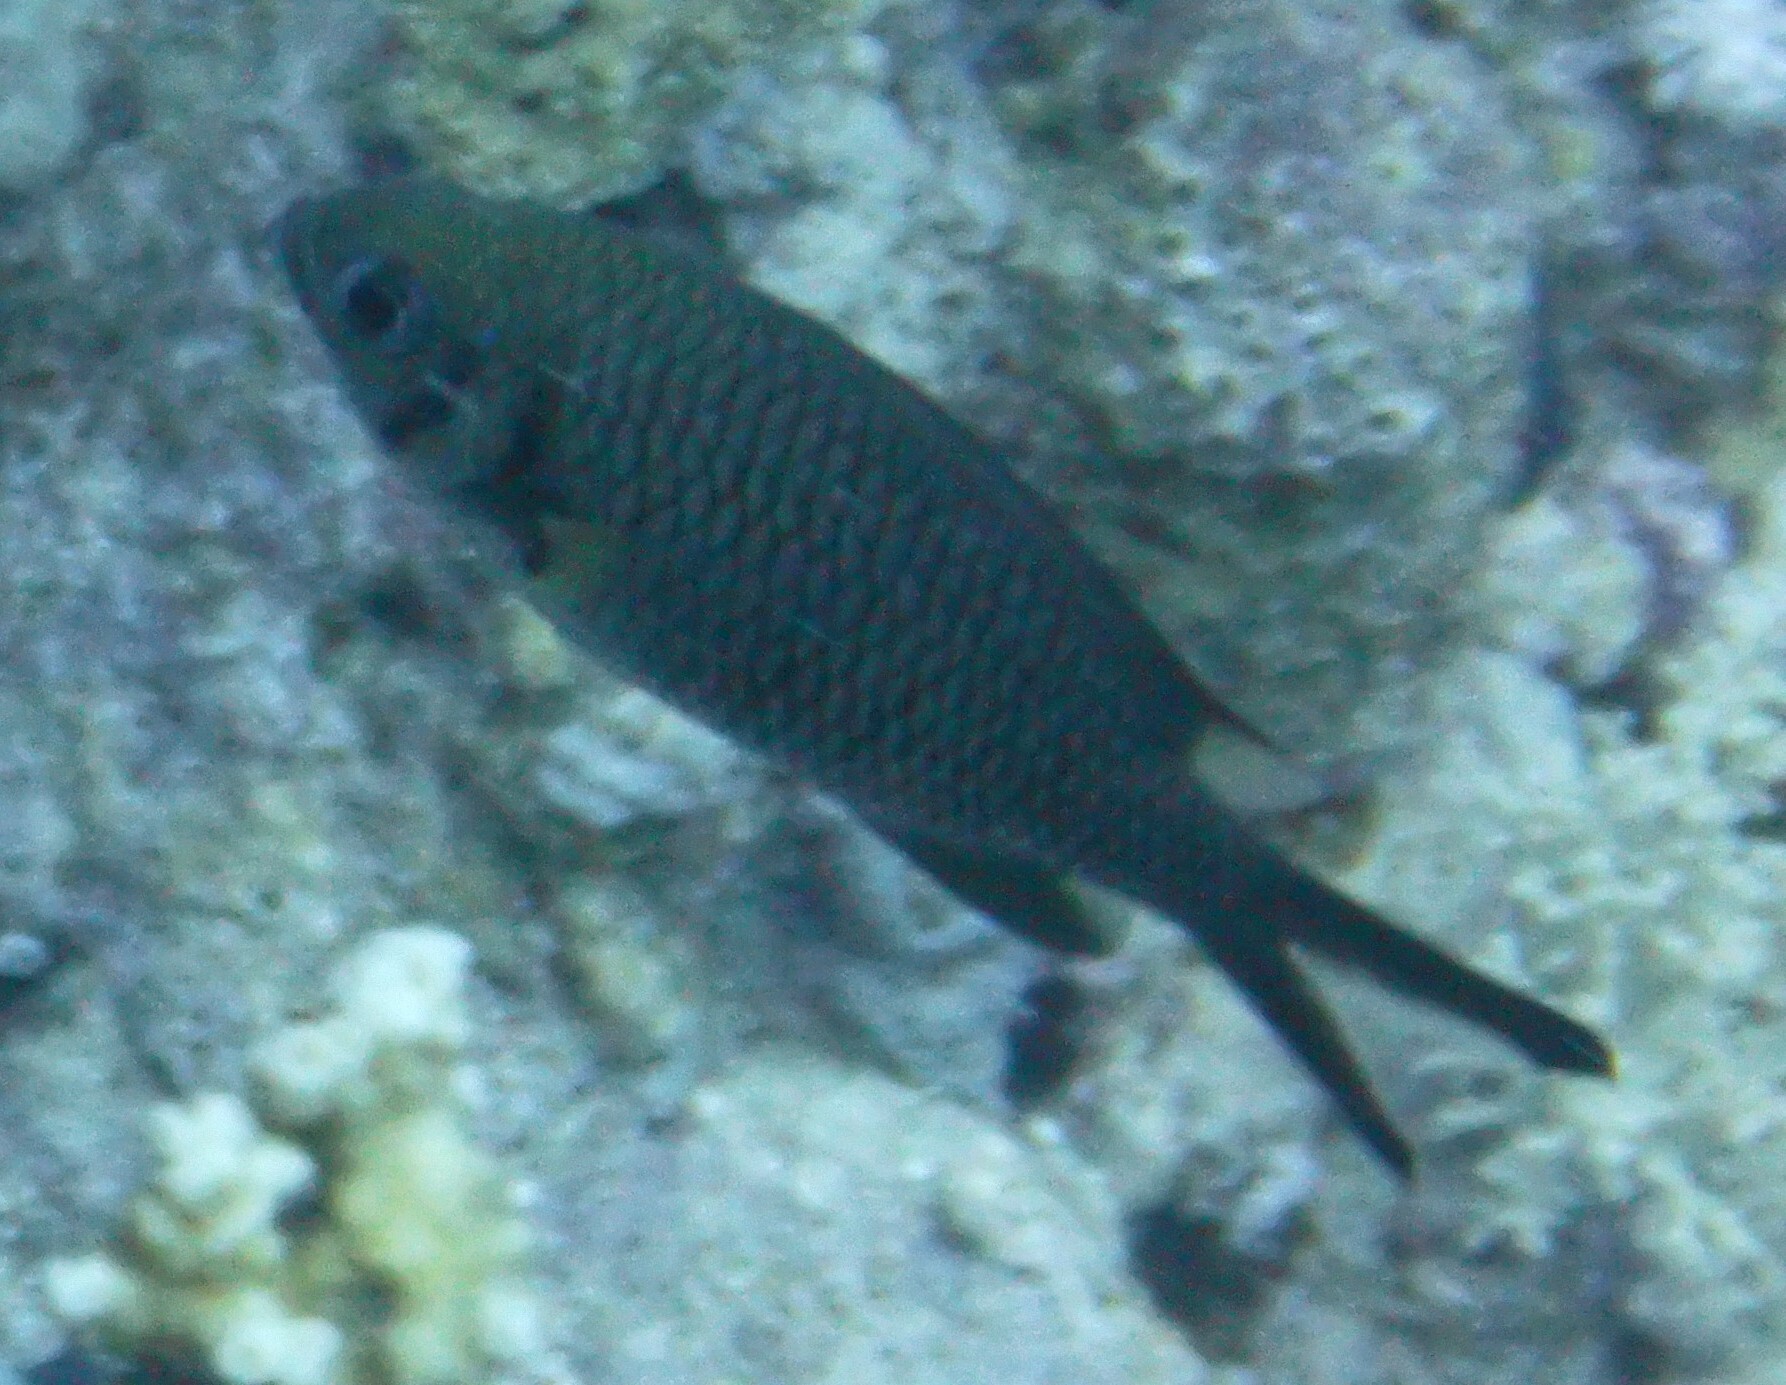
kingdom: Animalia
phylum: Chordata
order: Perciformes
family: Pomacentridae
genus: Chromis
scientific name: Chromis weberi
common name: Weber's chromis
